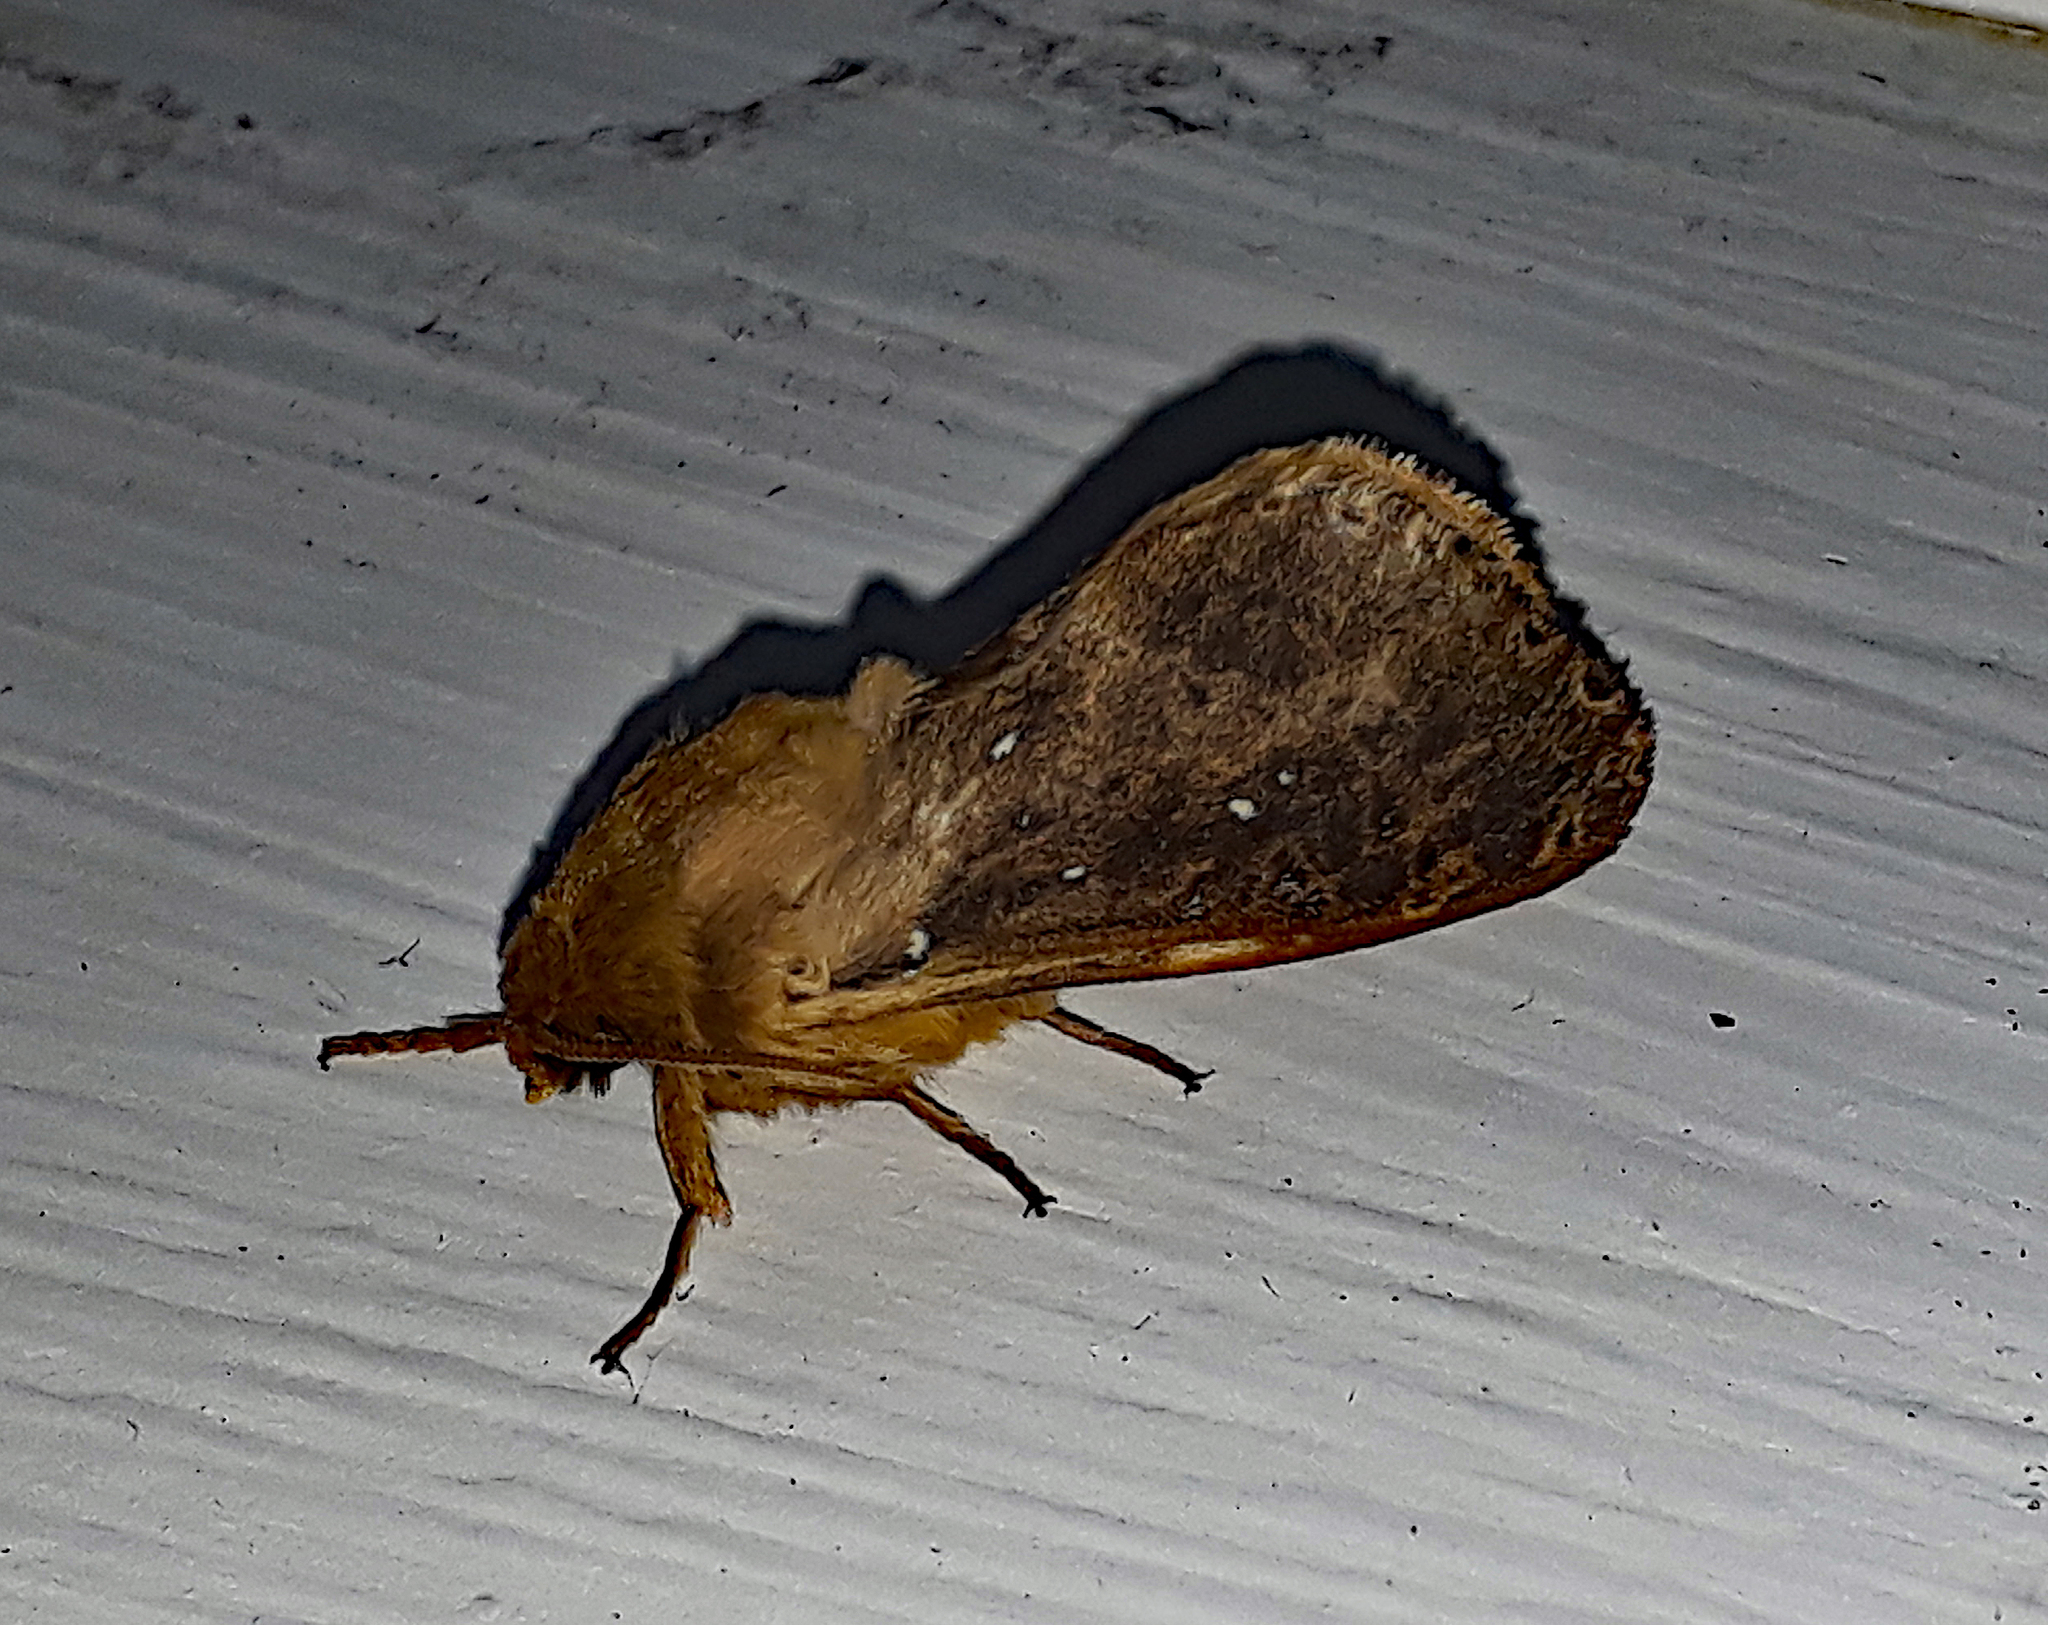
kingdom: Animalia
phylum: Arthropoda
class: Insecta
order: Lepidoptera
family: Hepialidae
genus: Wiseana
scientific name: Wiseana cervinata
